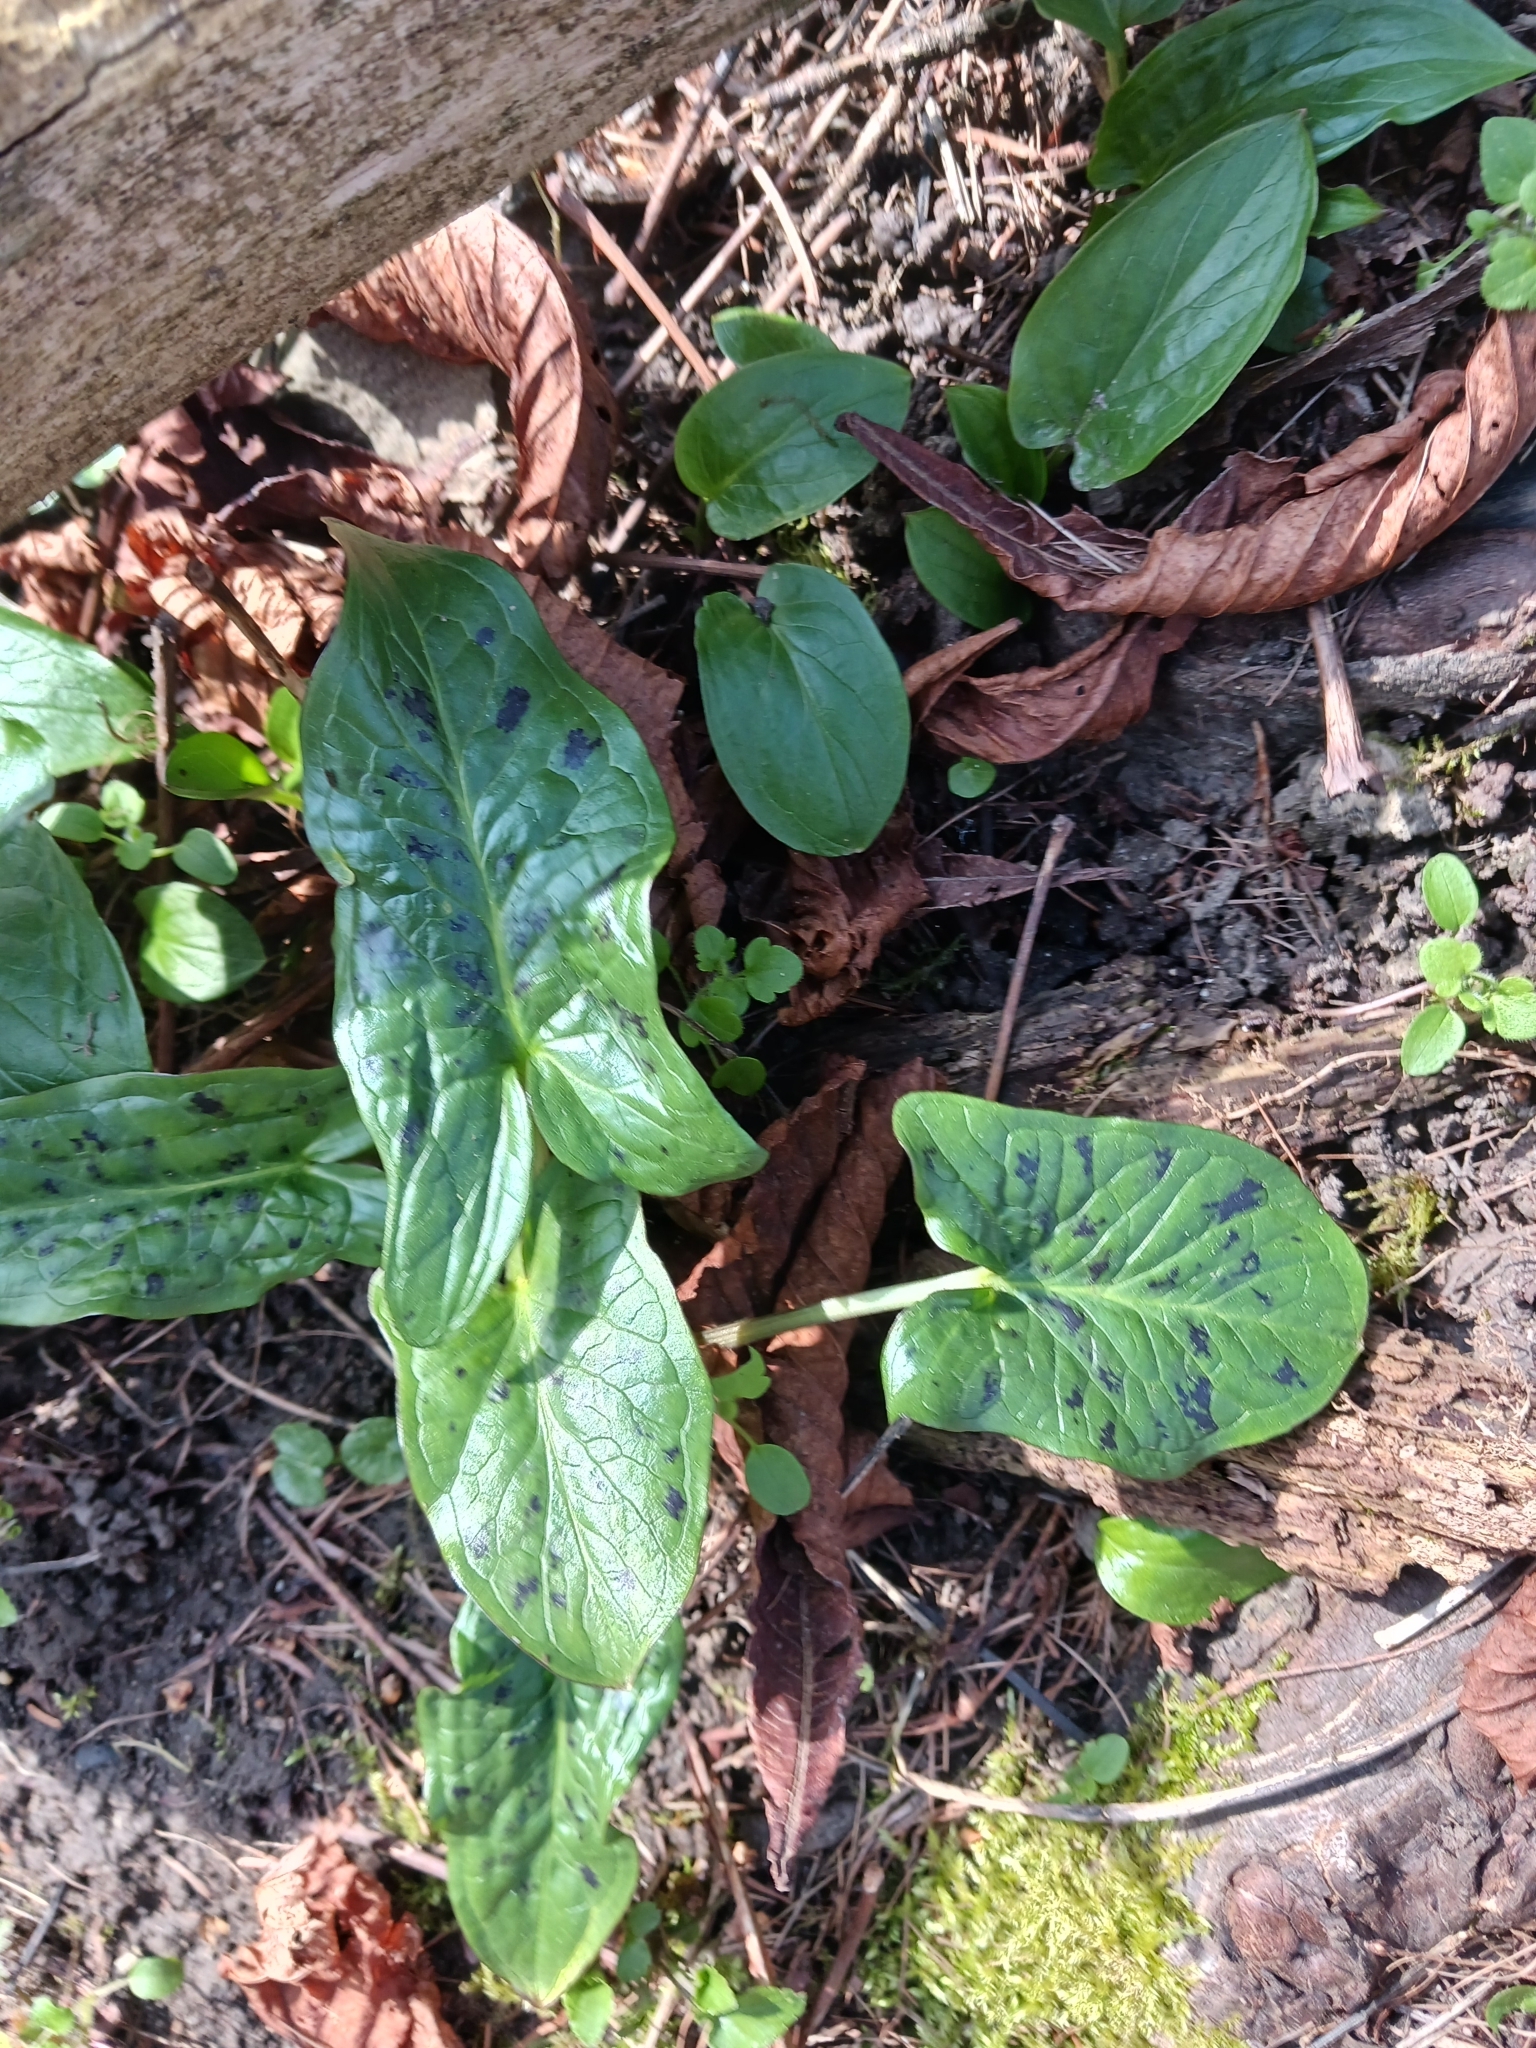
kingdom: Plantae
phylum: Tracheophyta
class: Liliopsida
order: Alismatales
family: Araceae
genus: Arum
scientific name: Arum maculatum
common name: Lords-and-ladies
